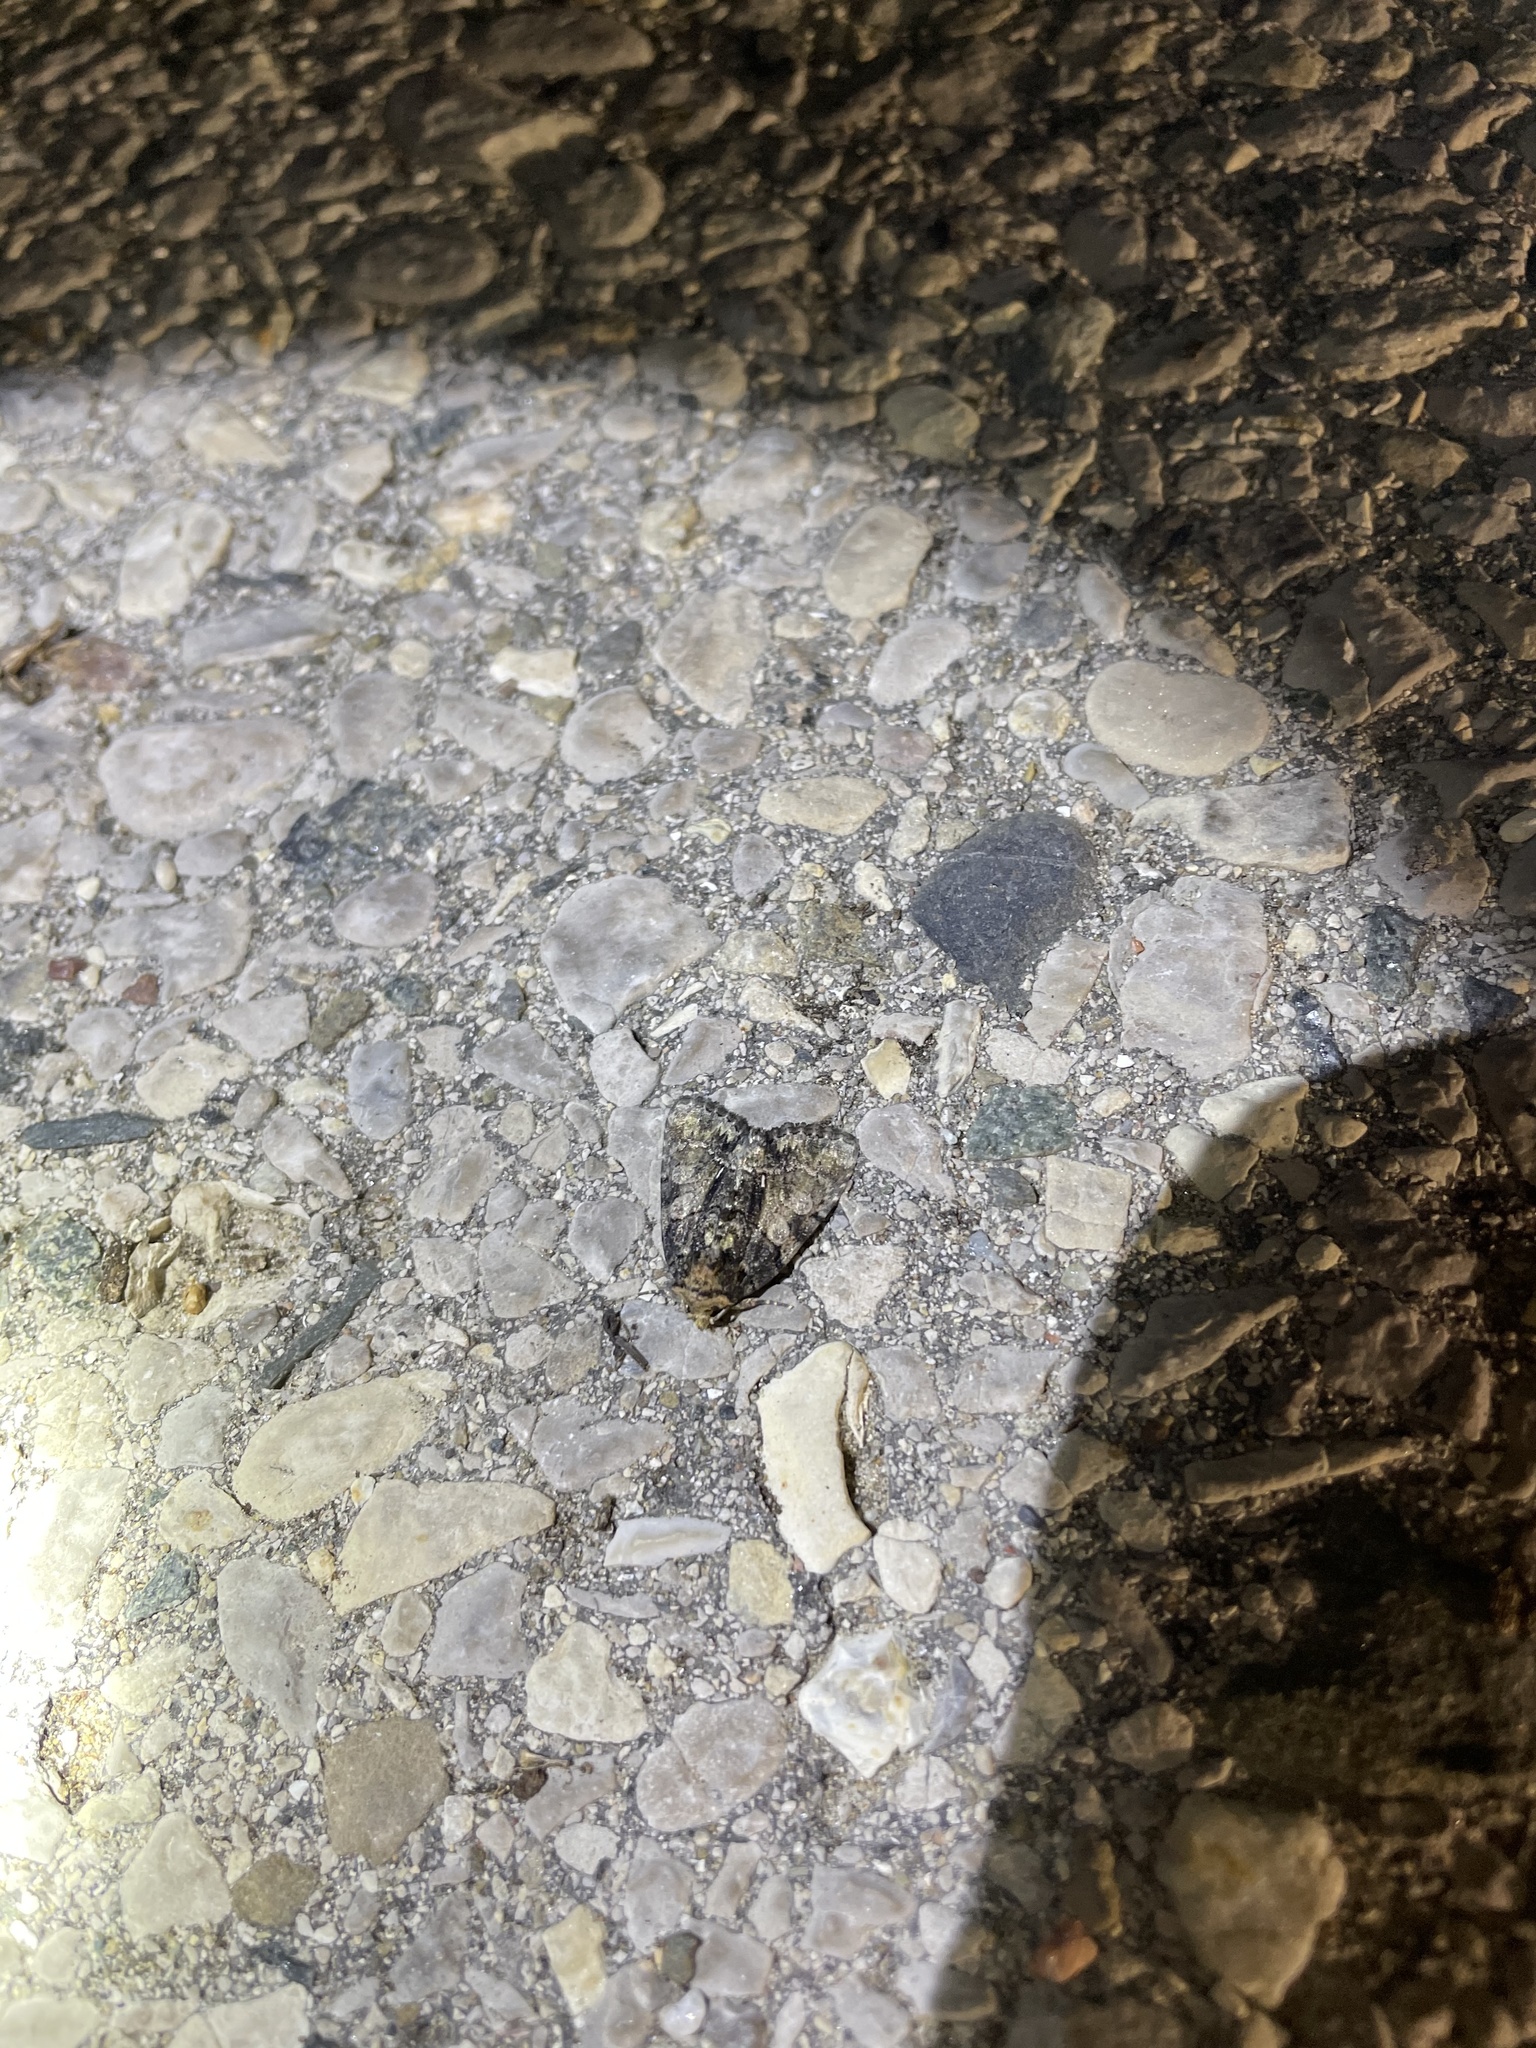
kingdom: Animalia
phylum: Arthropoda
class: Insecta
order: Lepidoptera
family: Noctuidae
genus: Chytonix
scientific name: Chytonix palliatricula
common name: Cloaked marvel
